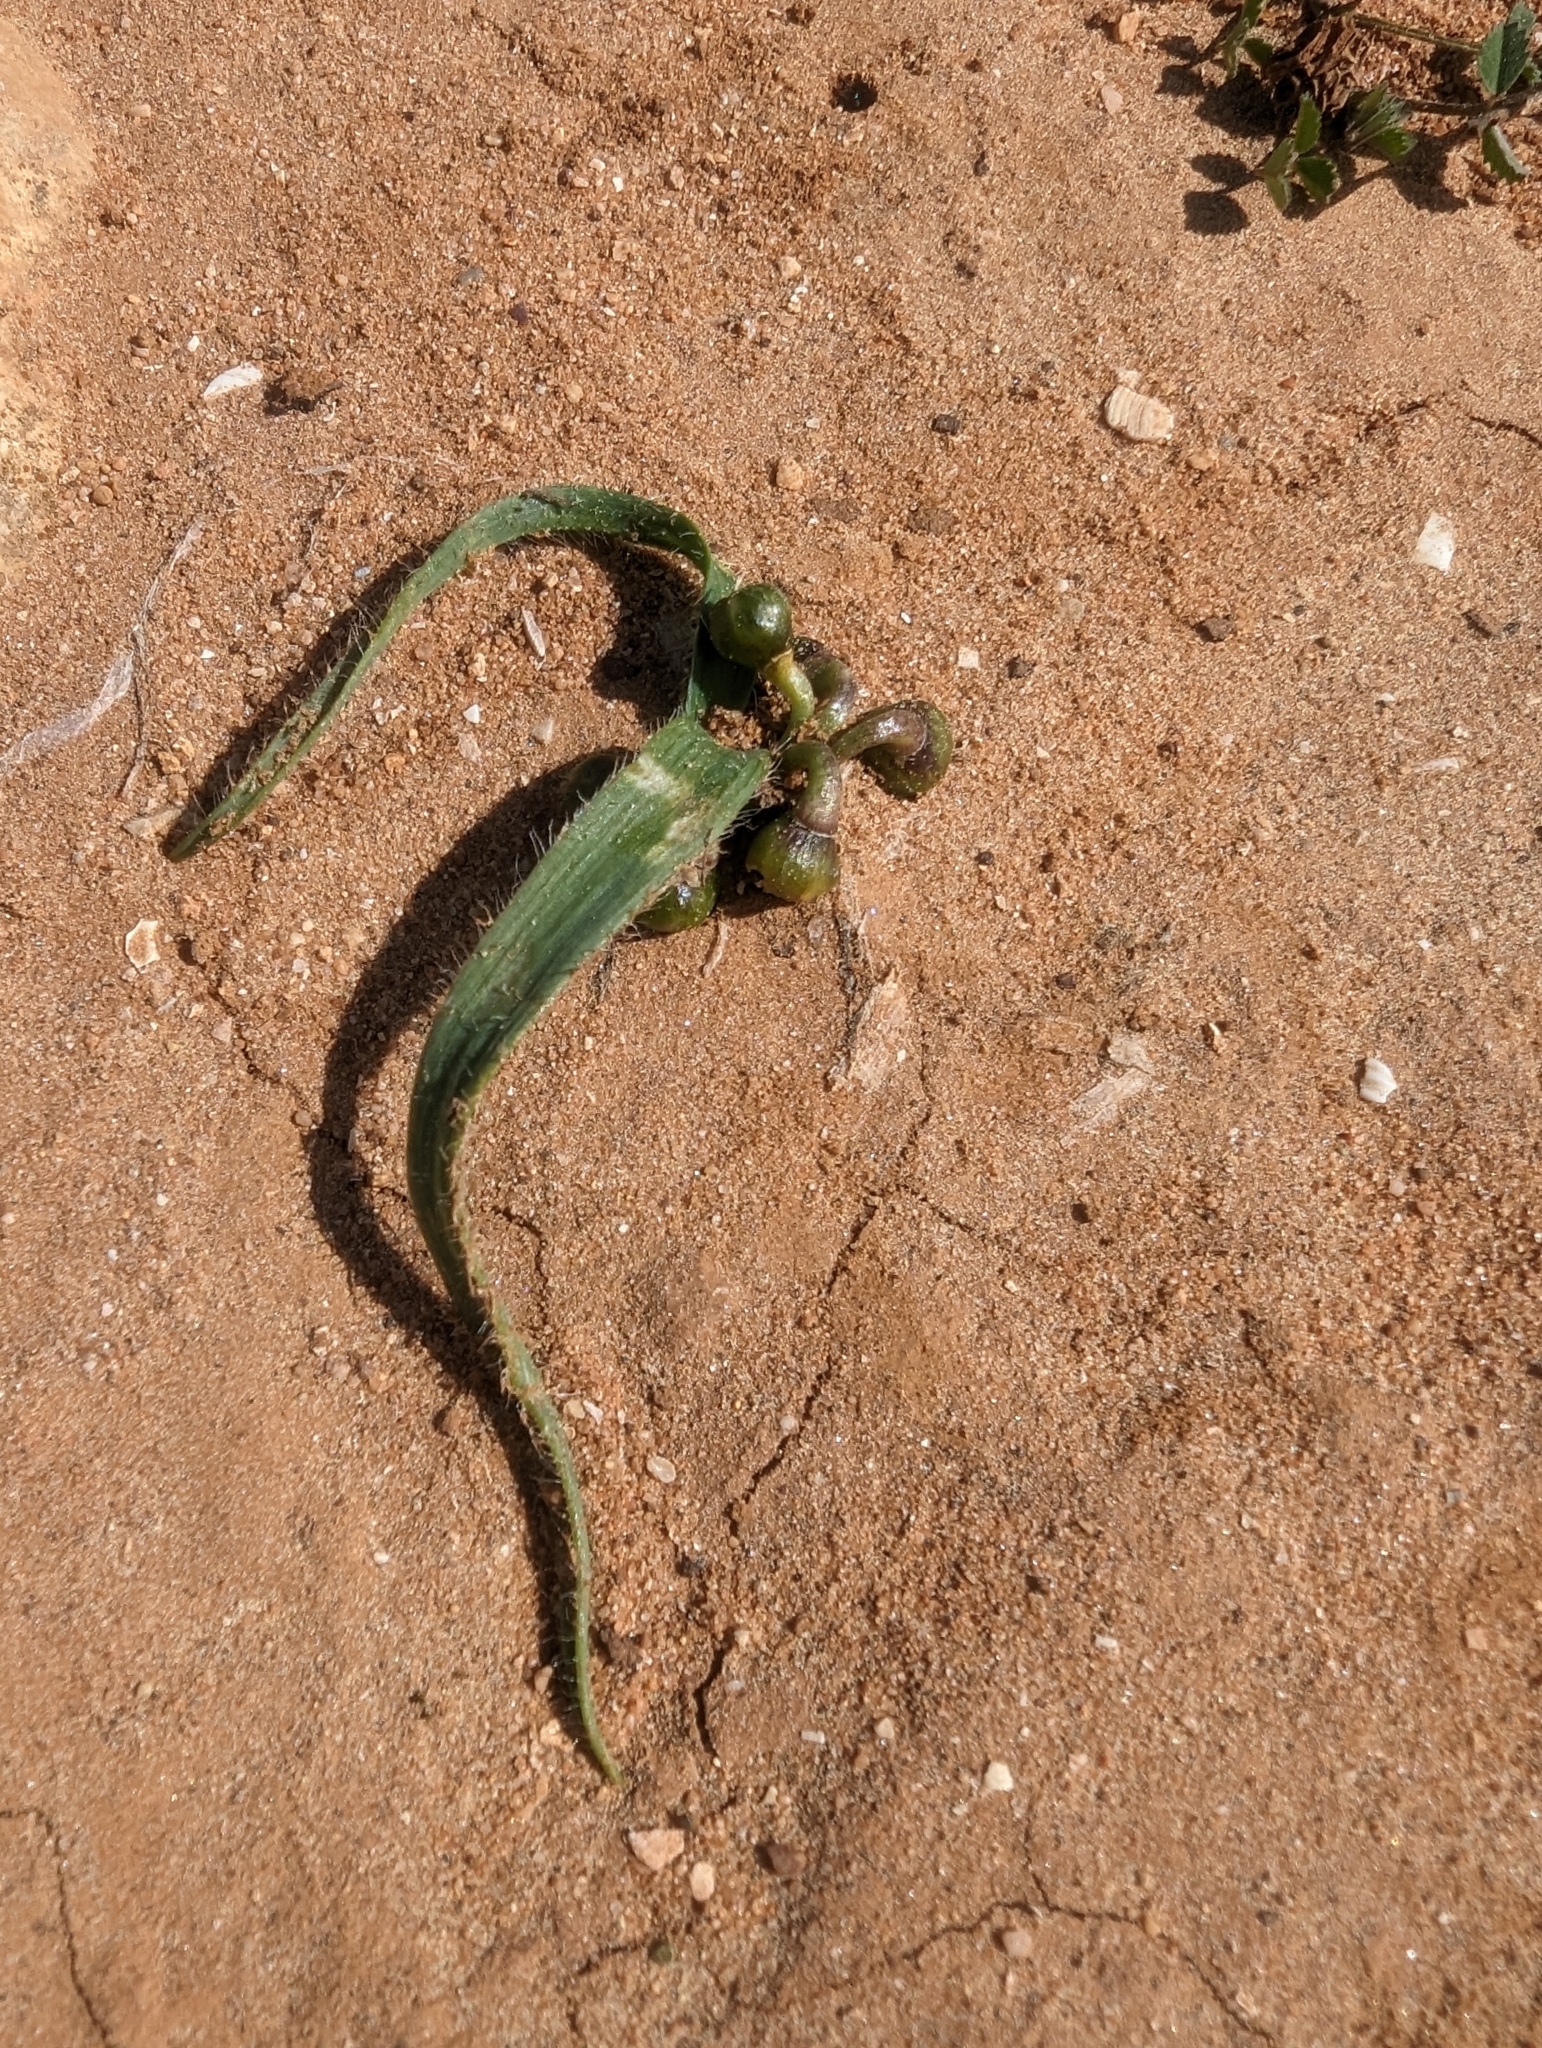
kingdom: Plantae
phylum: Tracheophyta
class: Liliopsida
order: Asparagales
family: Amaryllidaceae
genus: Allium
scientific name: Allium chamaemoly
